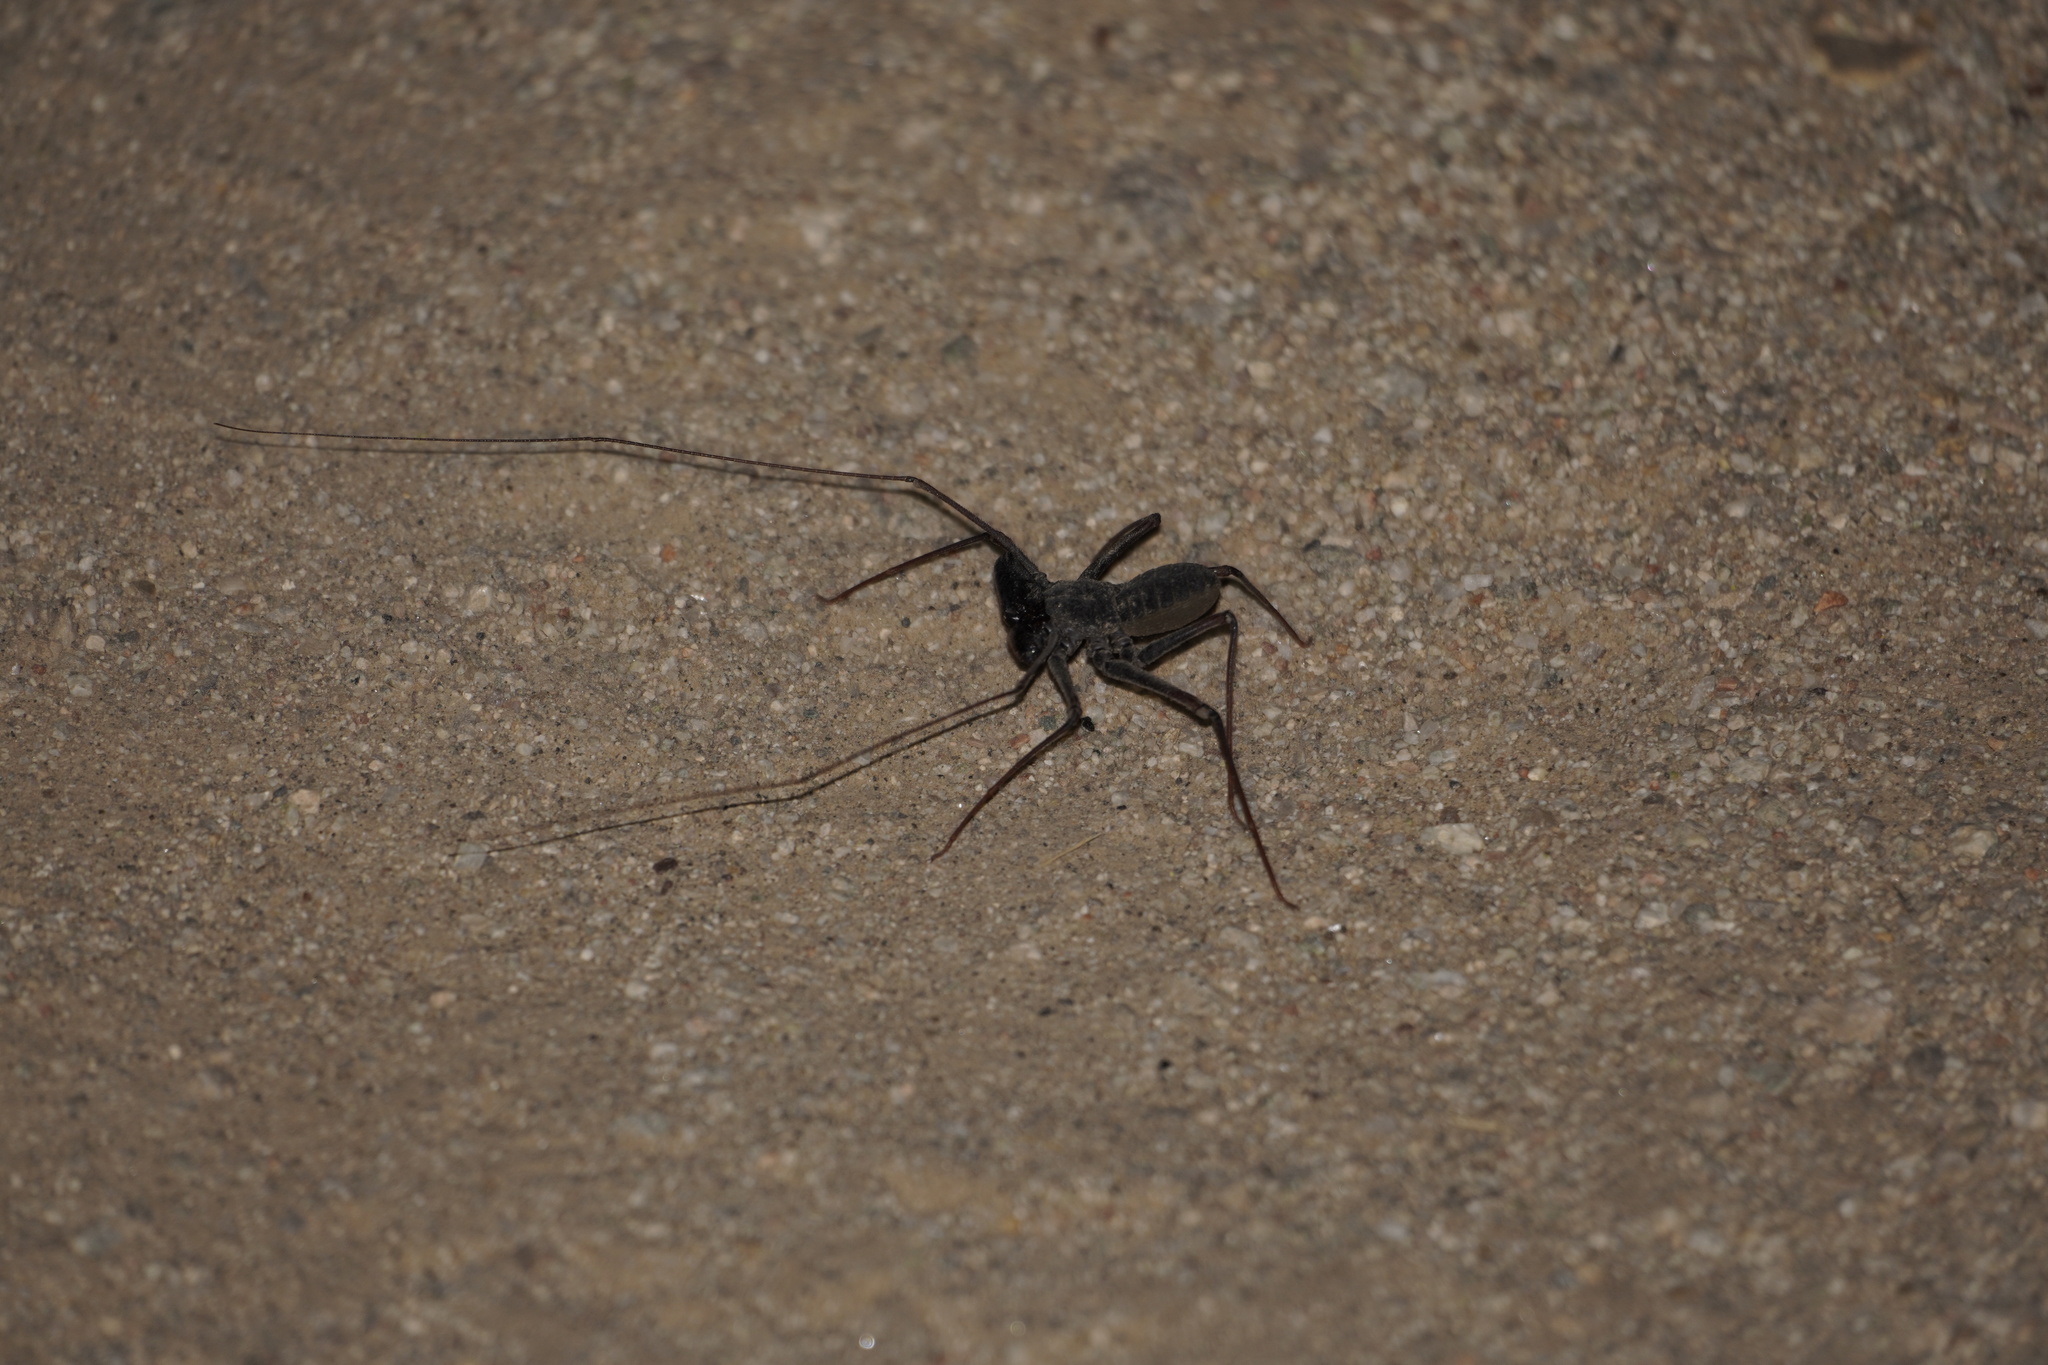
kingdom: Animalia
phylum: Arthropoda
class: Arachnida
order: Amblypygi
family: Phrynidae
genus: Paraphrynus
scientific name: Paraphrynus carolynae
